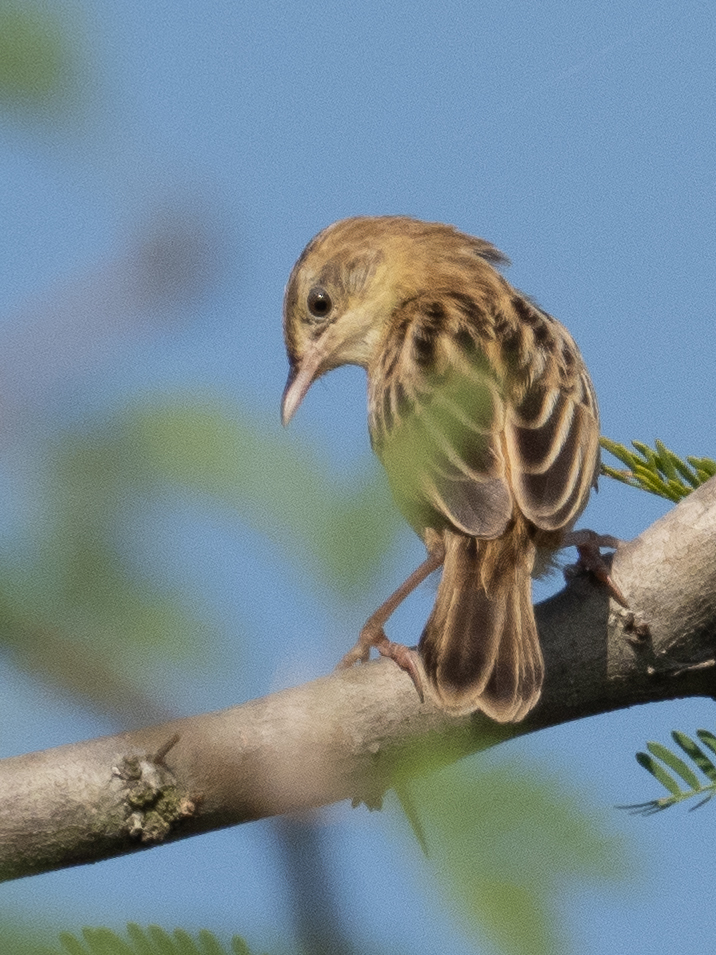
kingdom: Animalia
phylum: Chordata
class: Aves
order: Passeriformes
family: Cisticolidae
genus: Cisticola
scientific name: Cisticola juncidis
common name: Zitting cisticola
